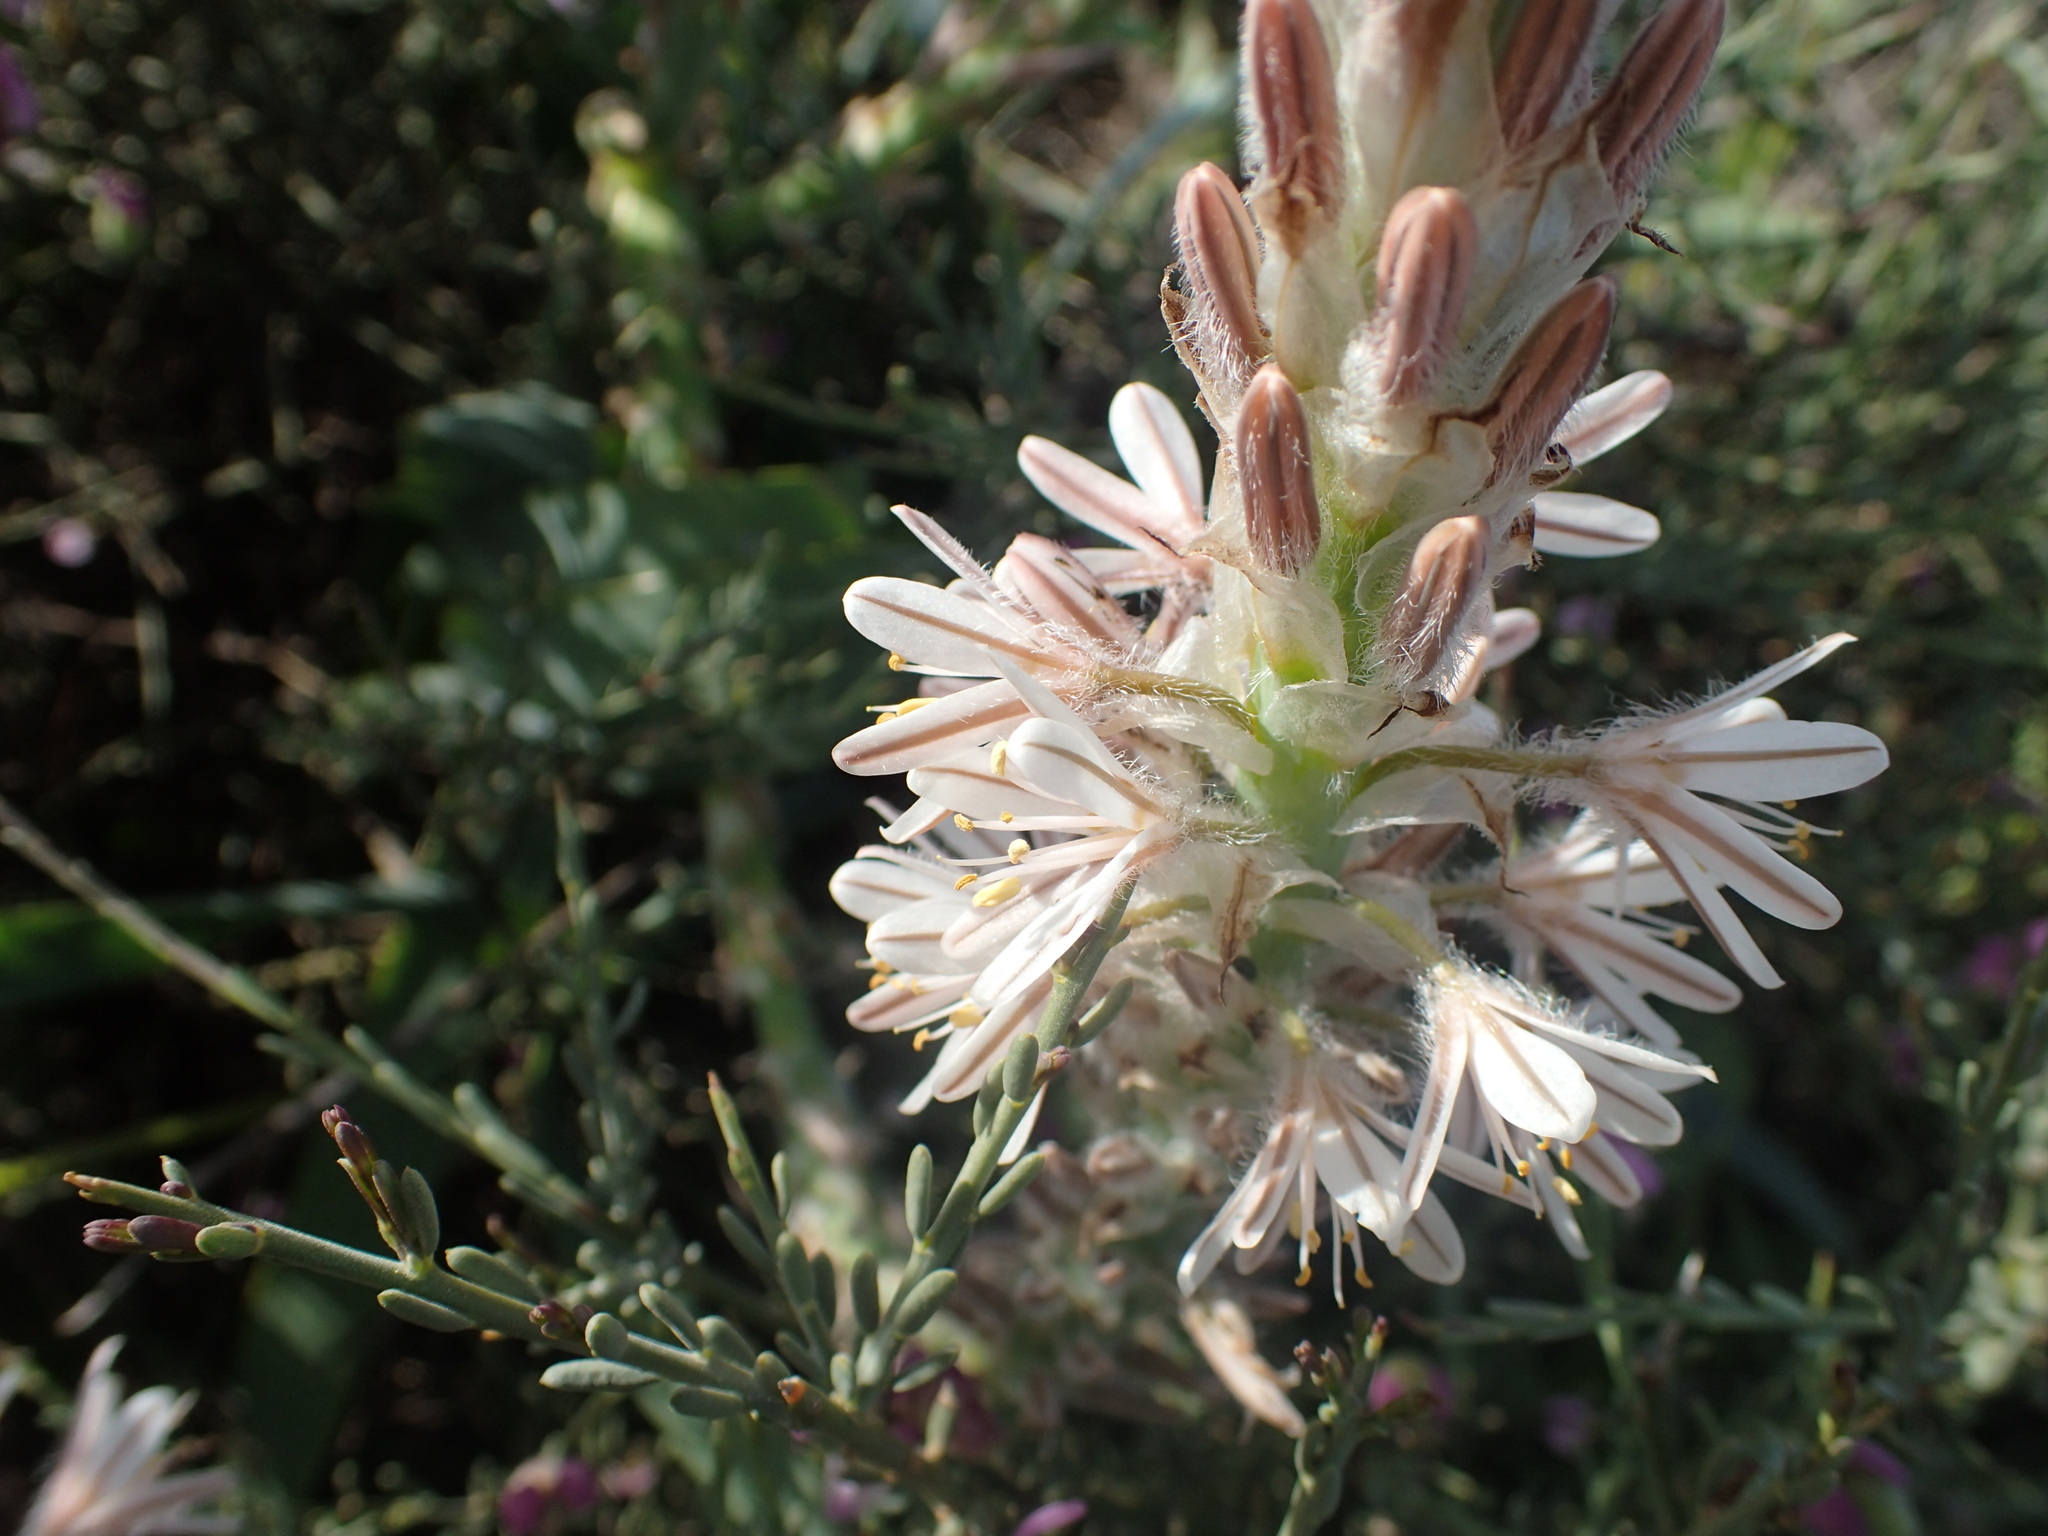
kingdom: Plantae
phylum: Tracheophyta
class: Liliopsida
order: Asparagales
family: Asphodelaceae
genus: Trachyandra
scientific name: Trachyandra falcata
